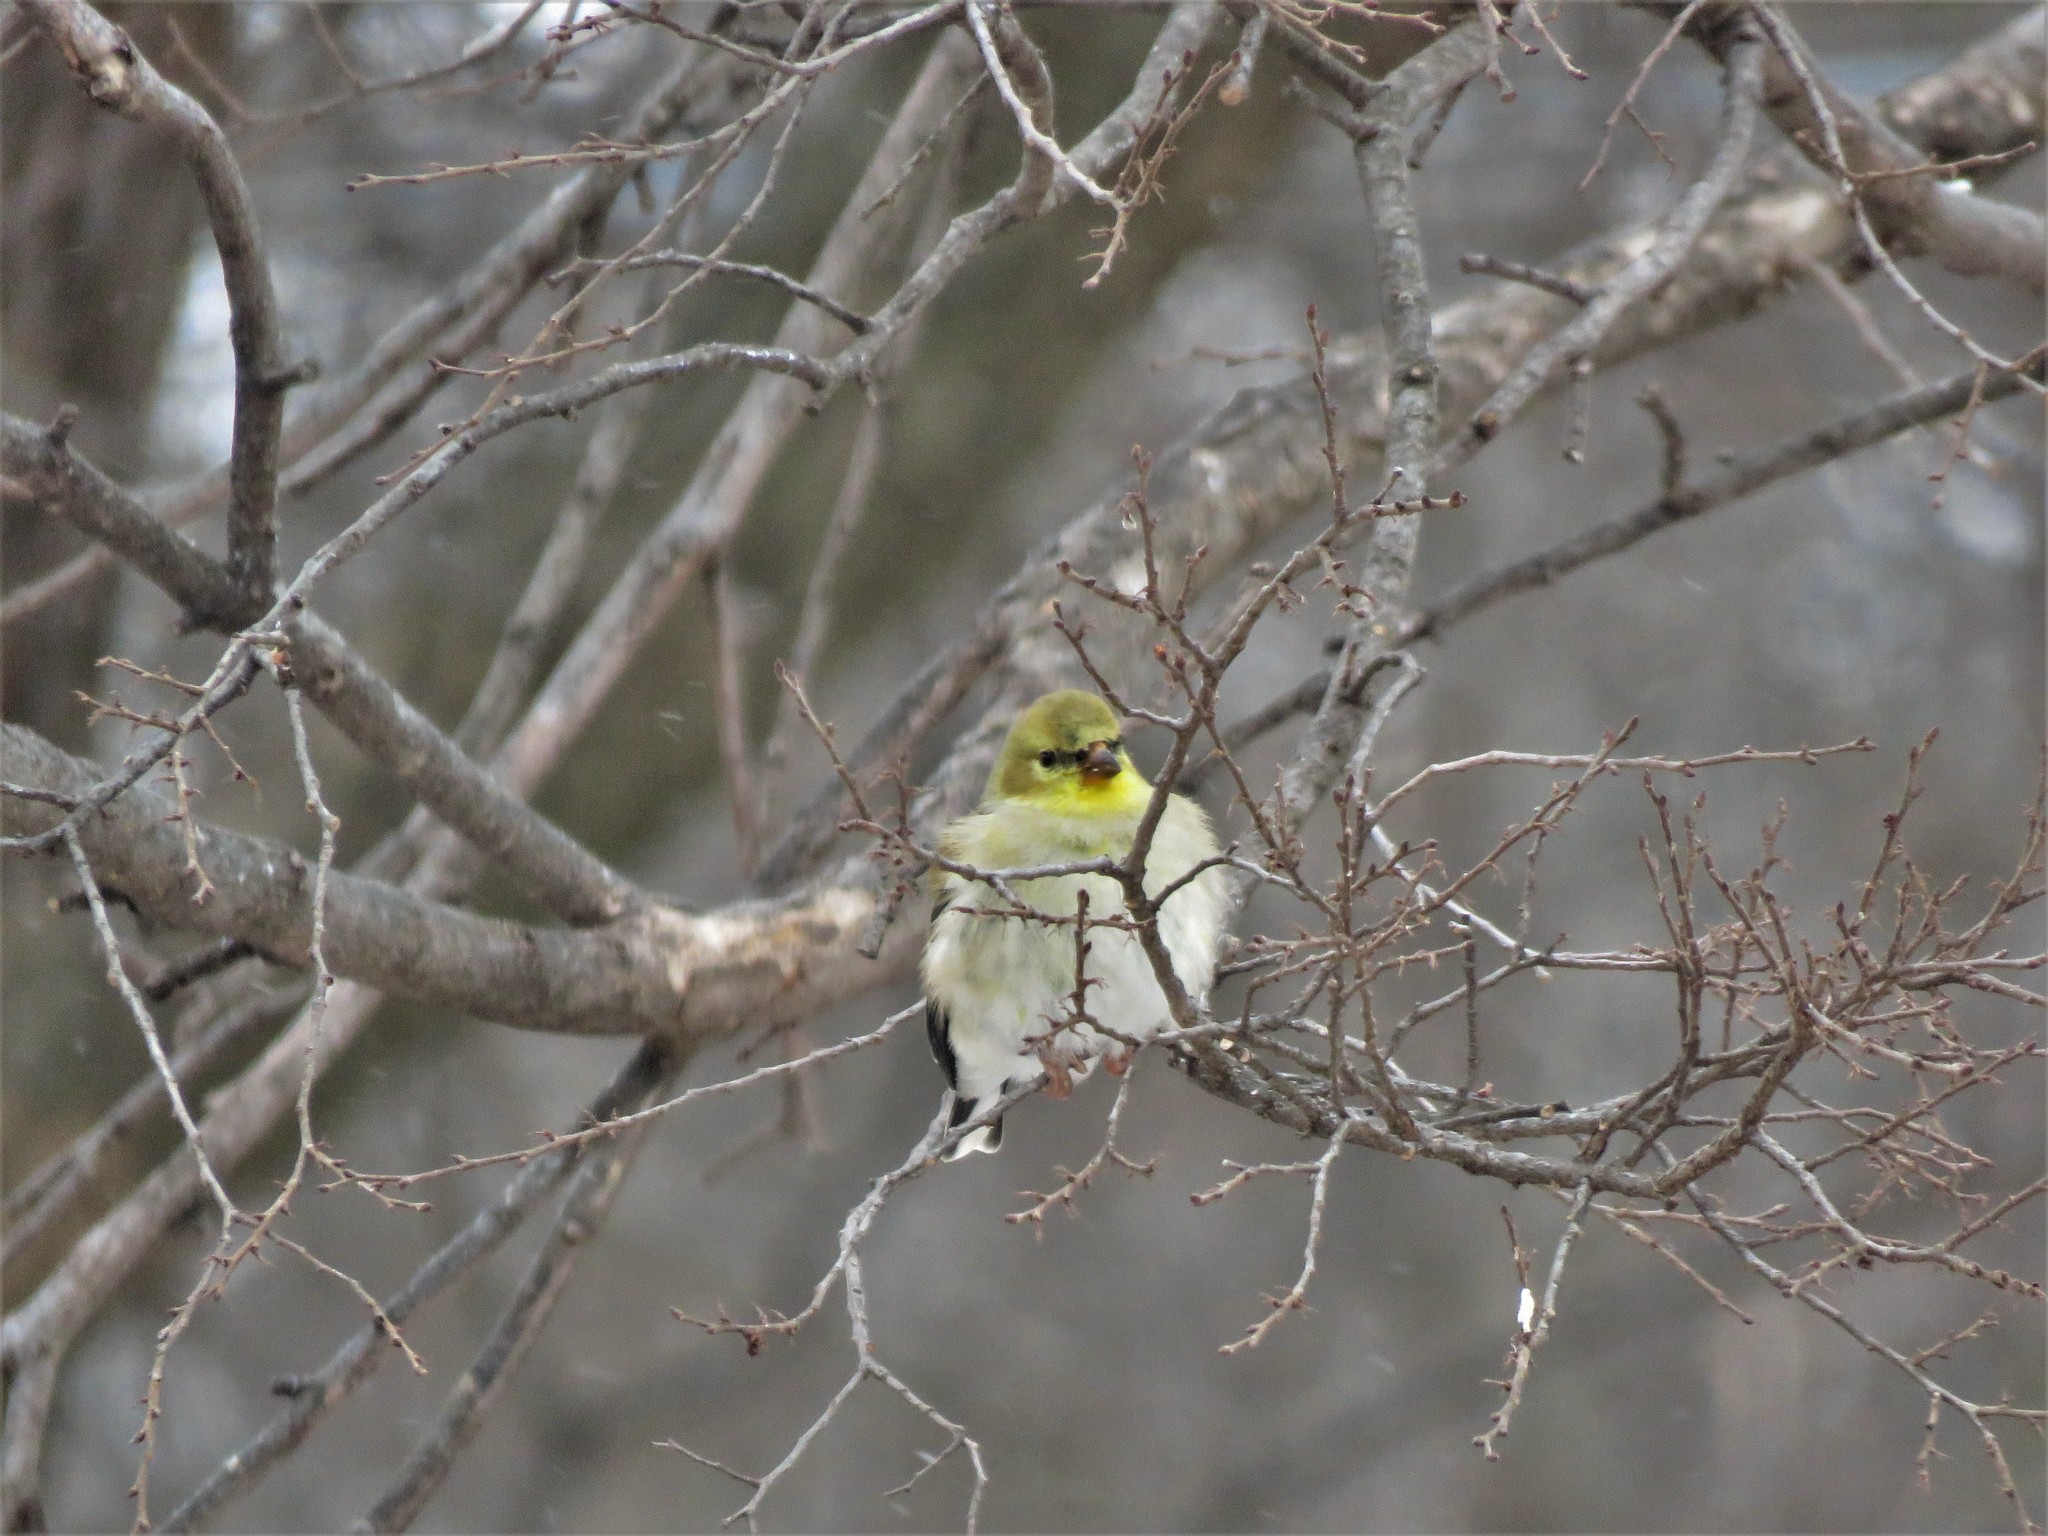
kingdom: Animalia
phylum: Chordata
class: Aves
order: Passeriformes
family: Fringillidae
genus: Spinus
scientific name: Spinus tristis
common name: American goldfinch
